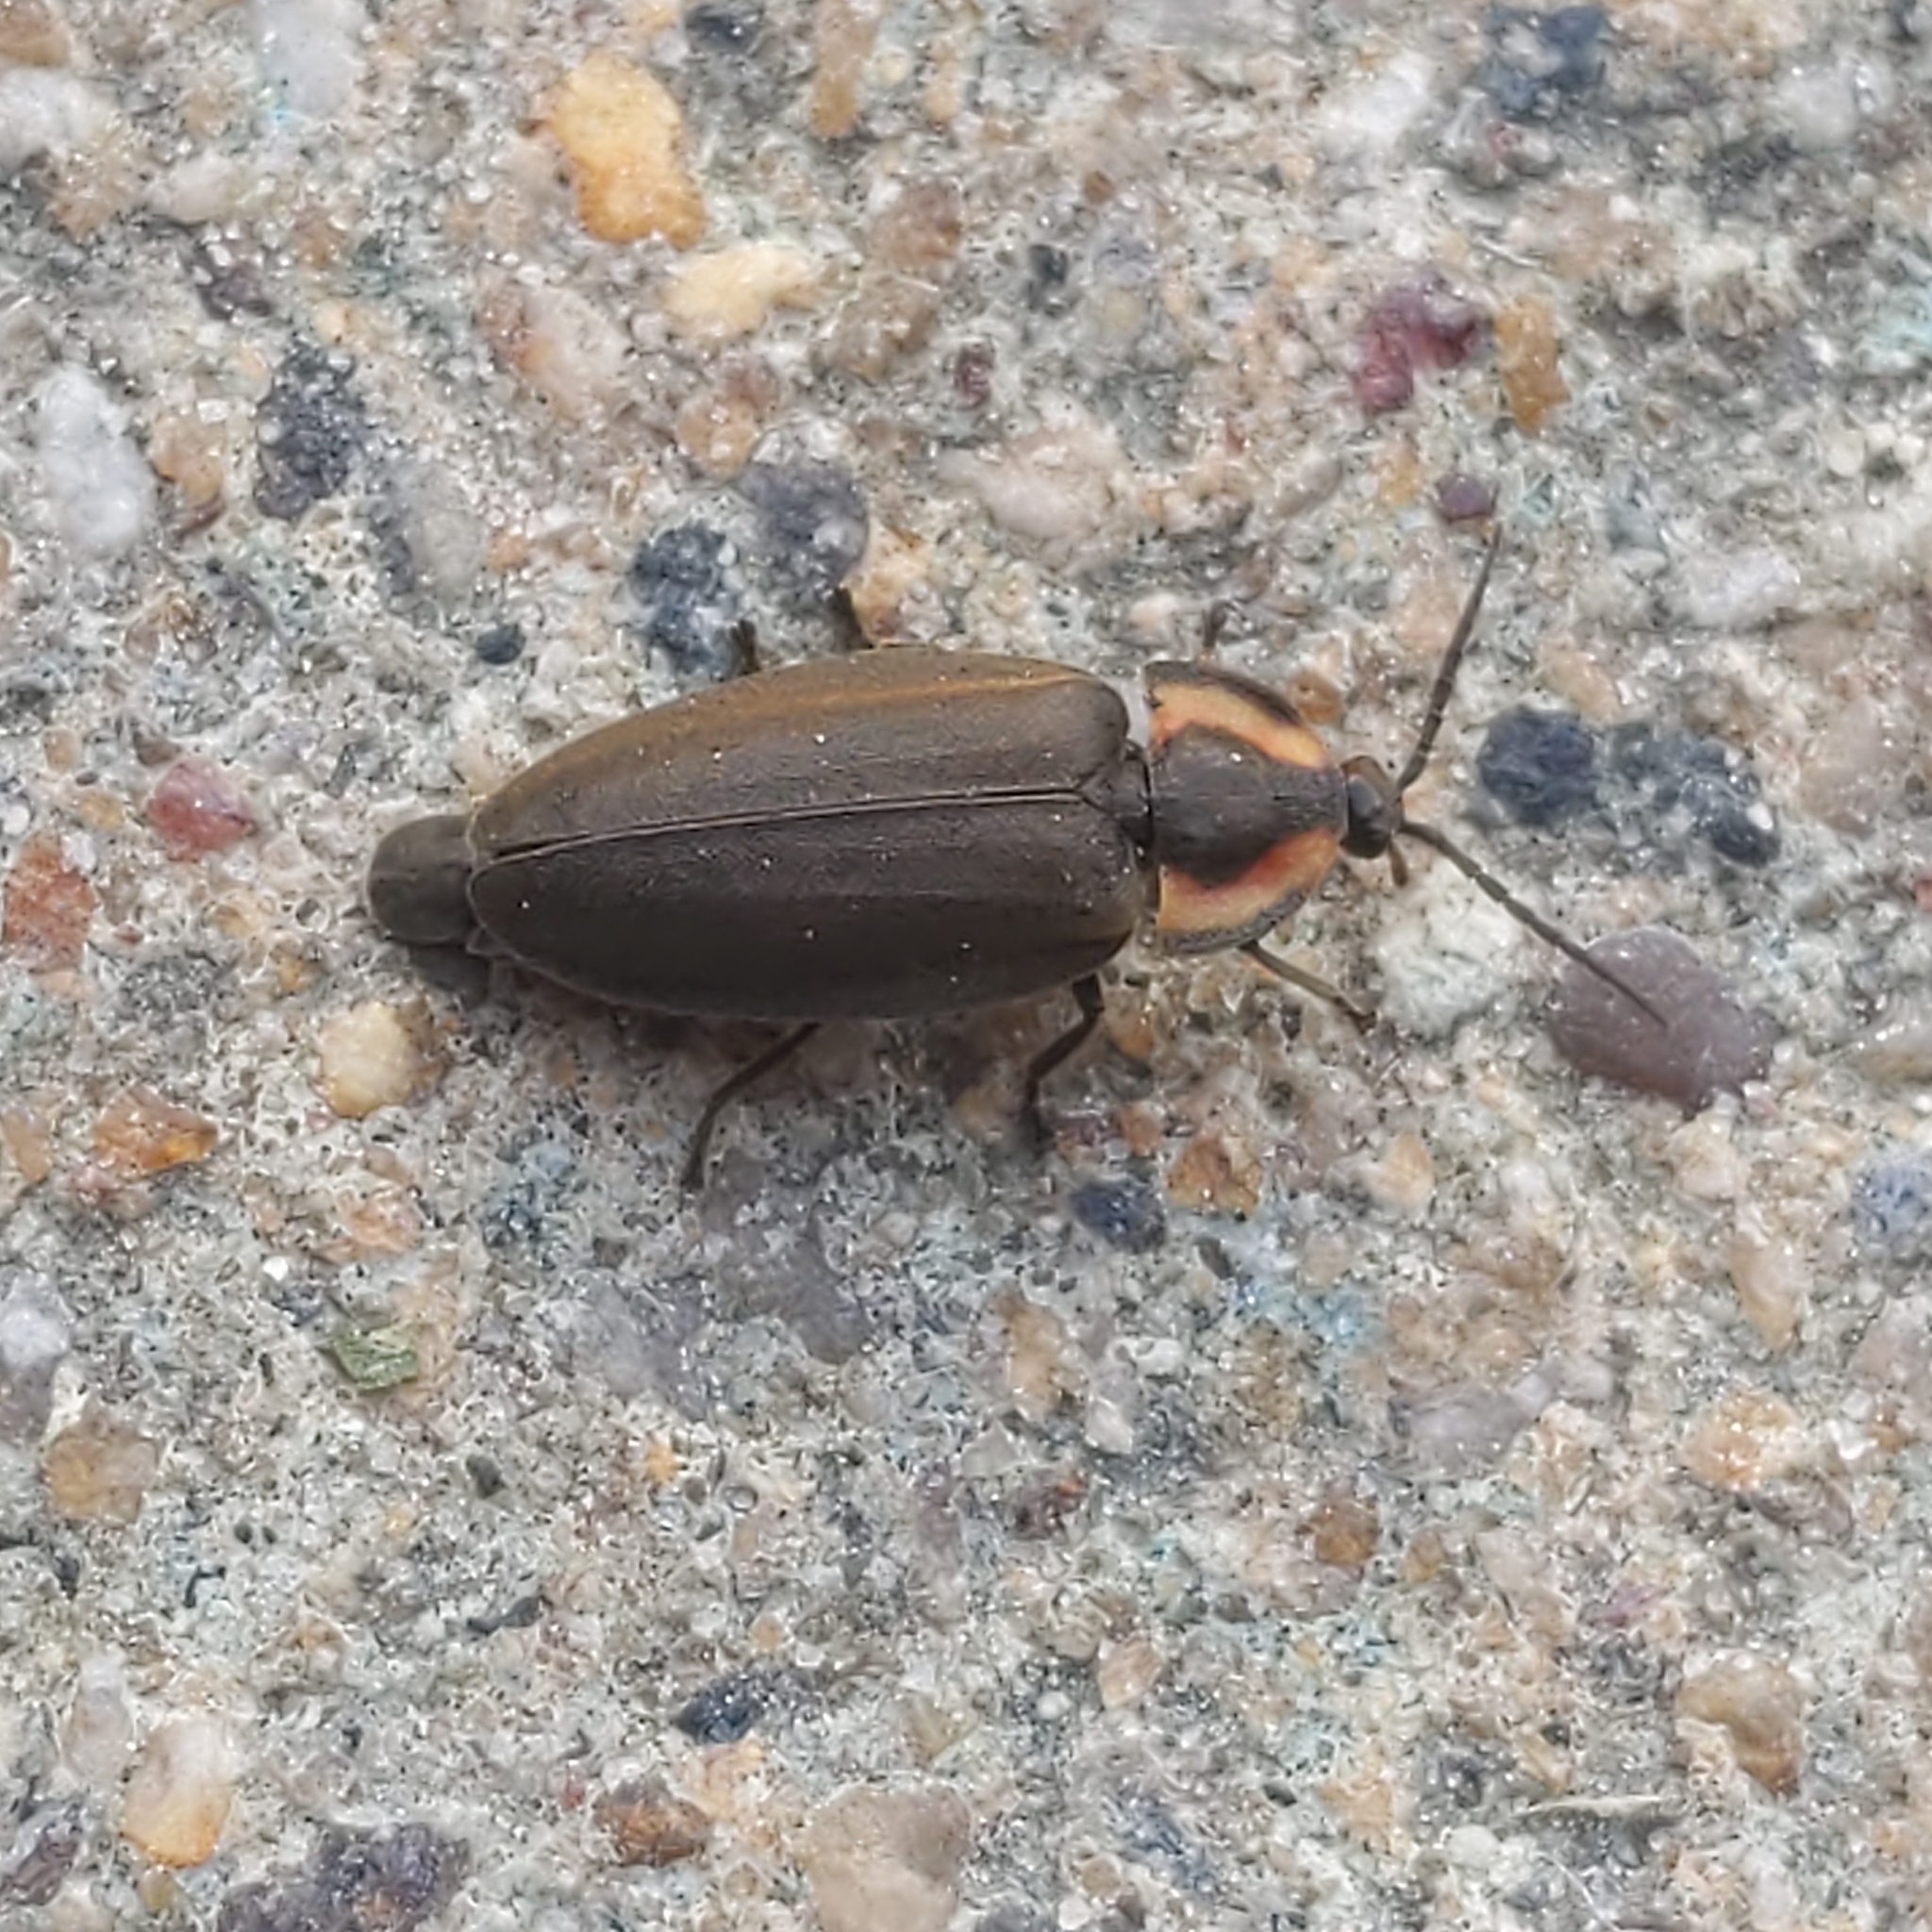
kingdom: Animalia
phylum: Arthropoda
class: Insecta
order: Coleoptera
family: Lampyridae
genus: Photinus
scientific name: Photinus corrusca
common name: Winter firefly
